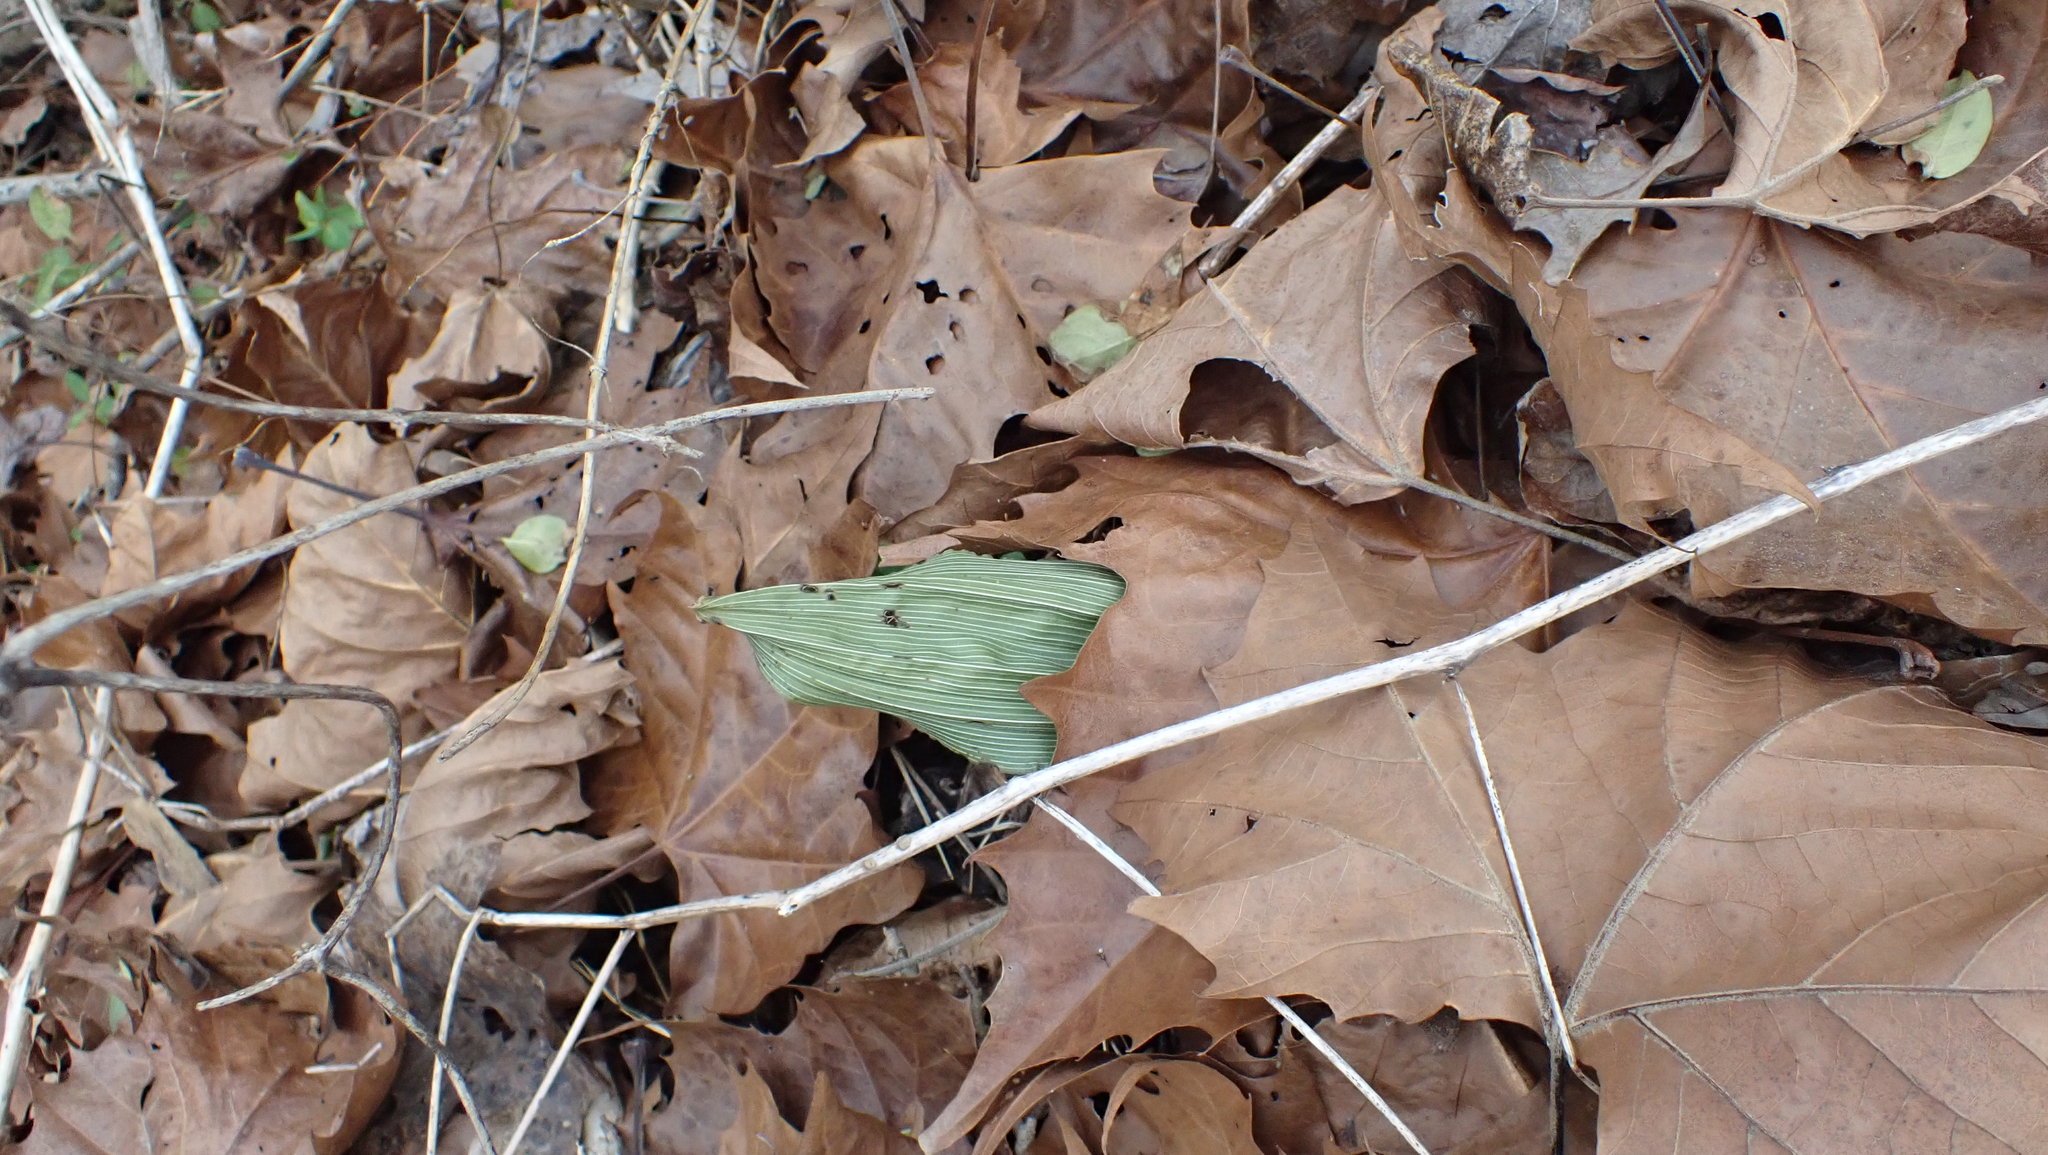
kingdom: Plantae
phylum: Tracheophyta
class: Liliopsida
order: Asparagales
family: Orchidaceae
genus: Aplectrum
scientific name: Aplectrum hyemale
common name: Adam-and-eve
